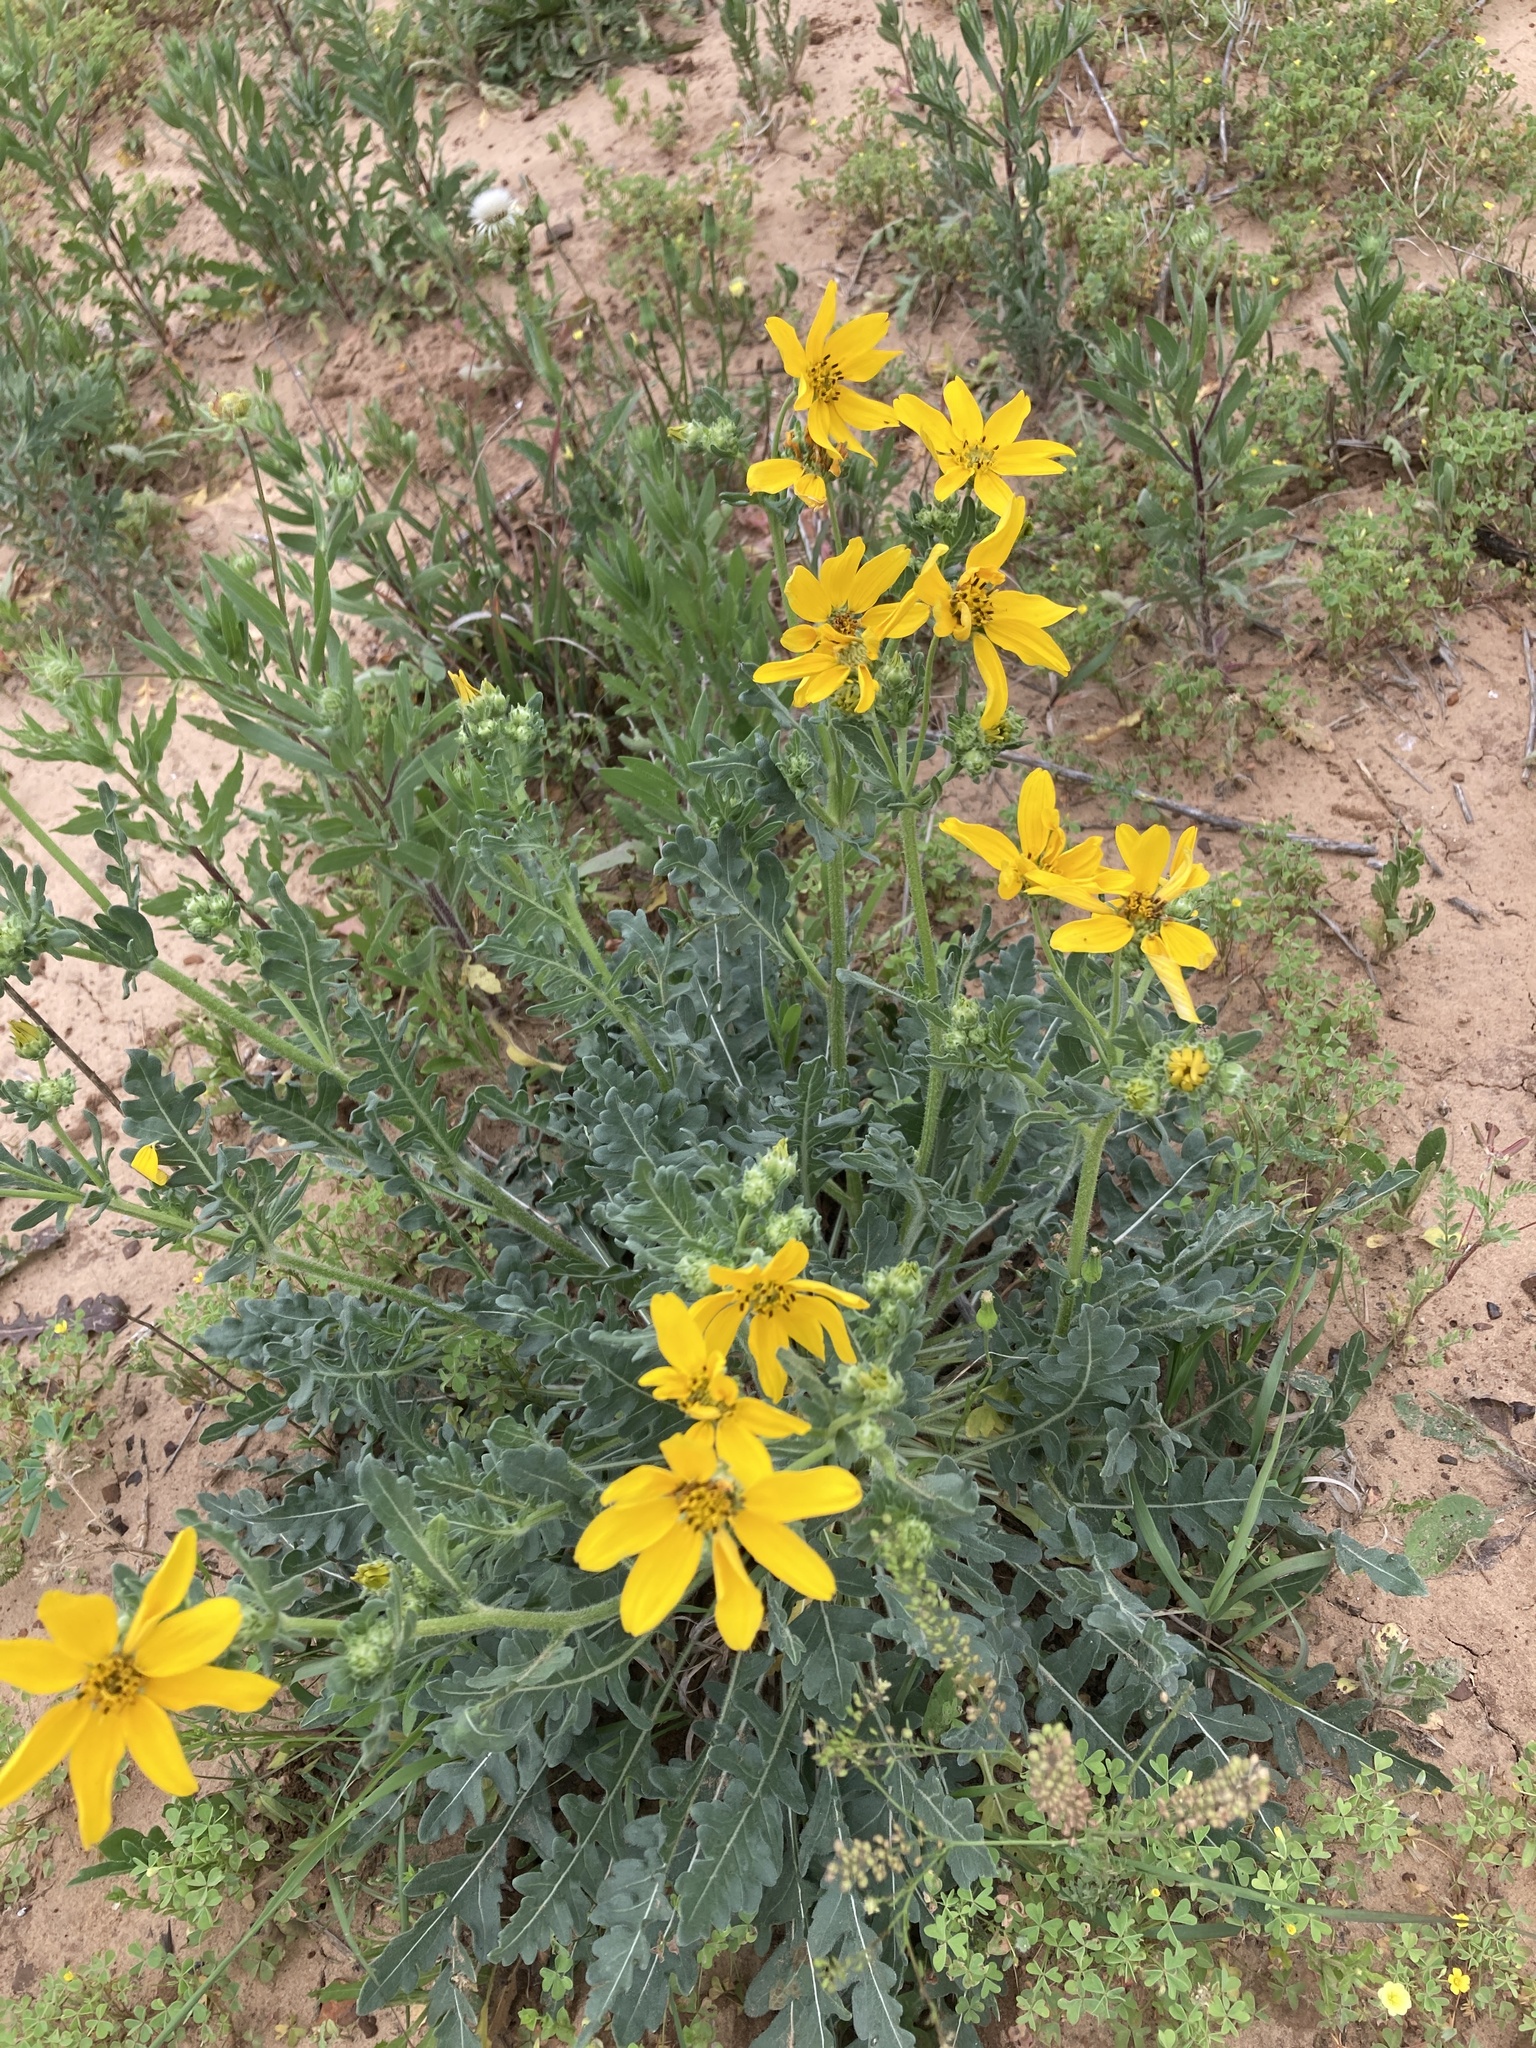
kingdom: Plantae
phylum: Tracheophyta
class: Magnoliopsida
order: Asterales
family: Asteraceae
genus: Engelmannia
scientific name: Engelmannia peristenia
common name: Engelmann's daisy
